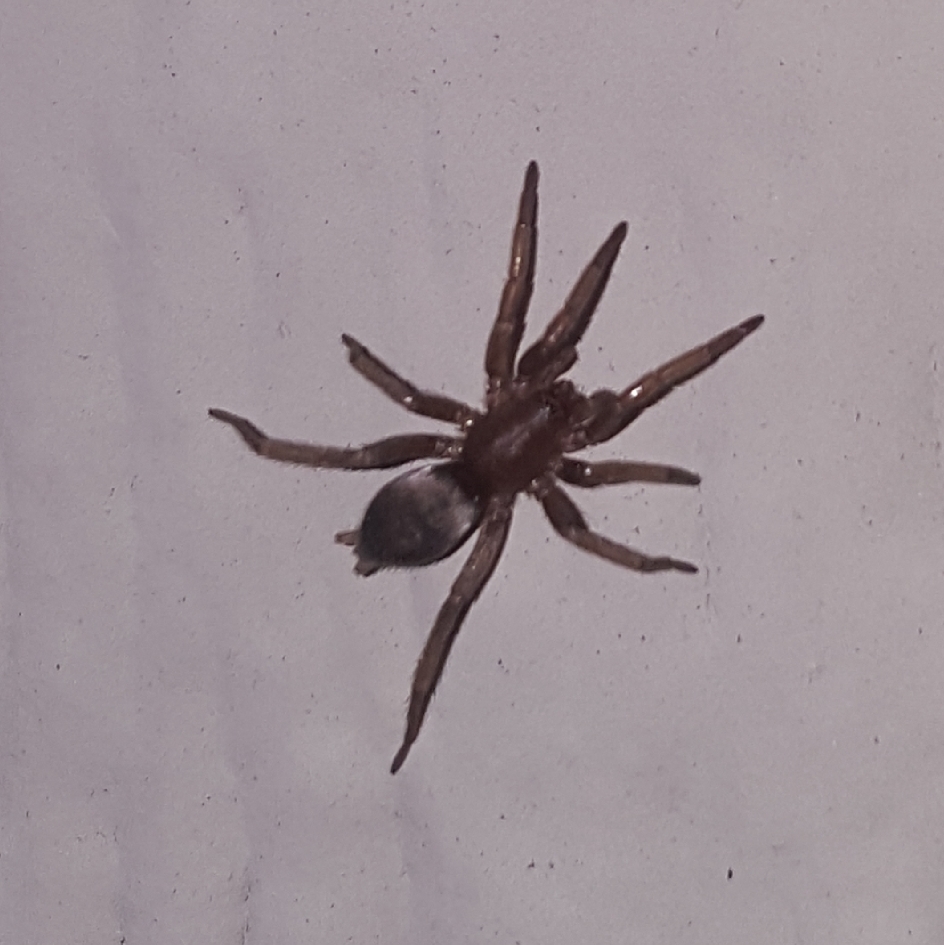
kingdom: Animalia
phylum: Arthropoda
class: Arachnida
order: Araneae
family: Gnaphosidae
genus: Scotophaeus
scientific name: Scotophaeus blackwalli
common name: Mouse spider
